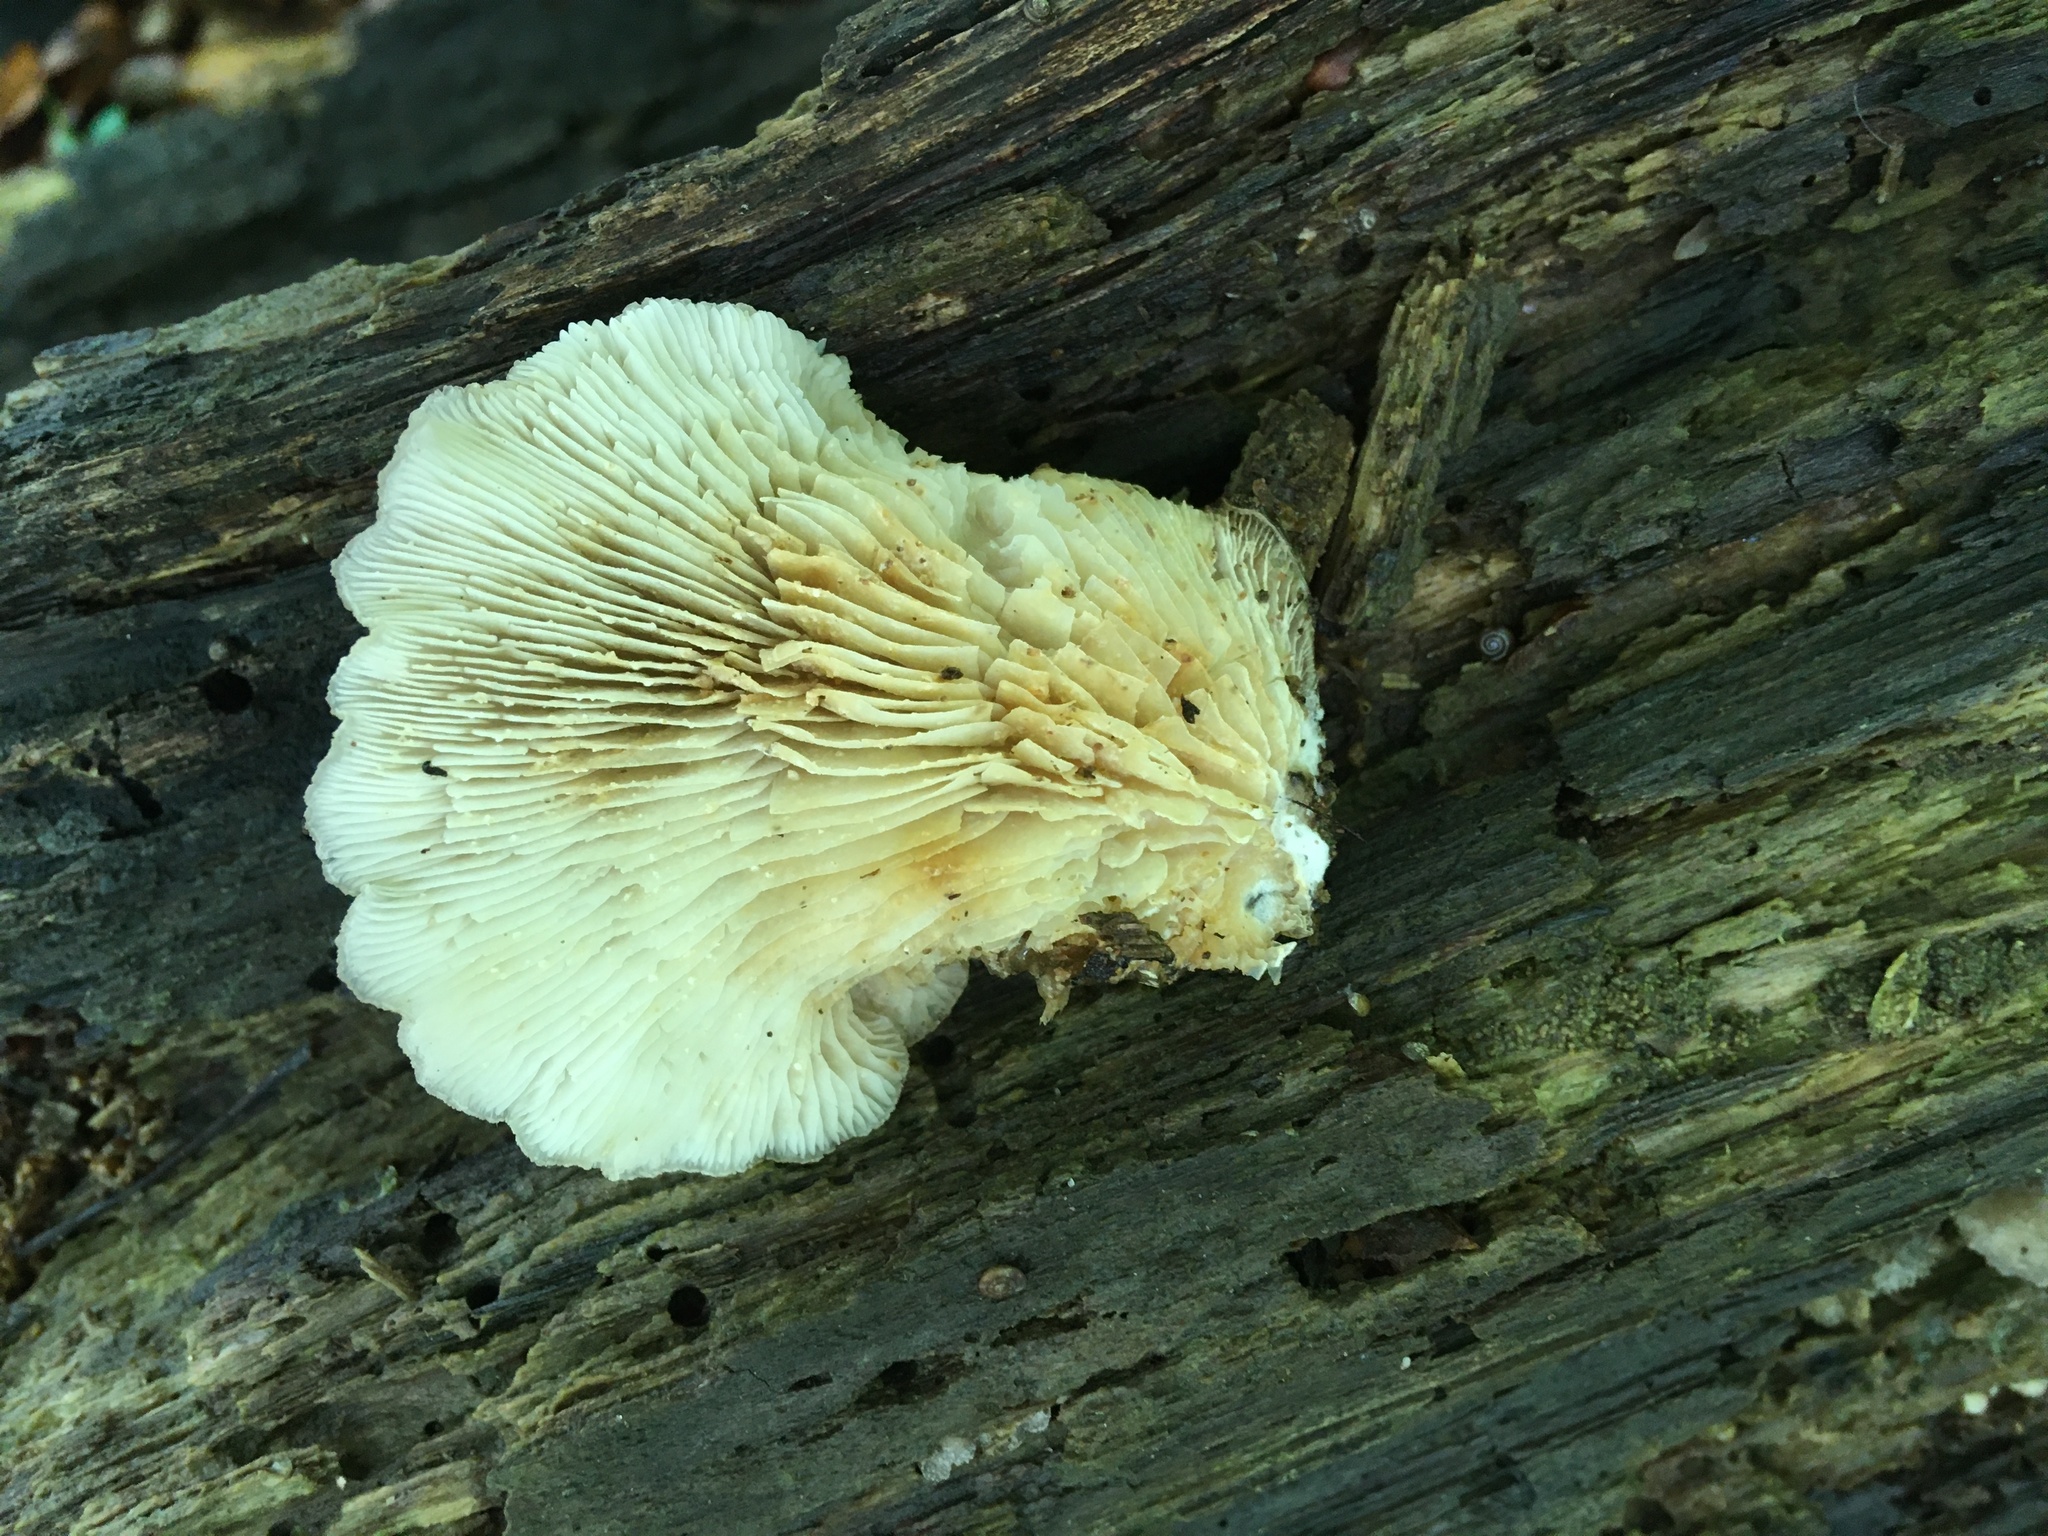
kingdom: Fungi
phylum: Basidiomycota
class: Agaricomycetes
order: Agaricales
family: Pleurotaceae
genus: Hohenbuehelia
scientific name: Hohenbuehelia mastrucata
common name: Woolly oyster
